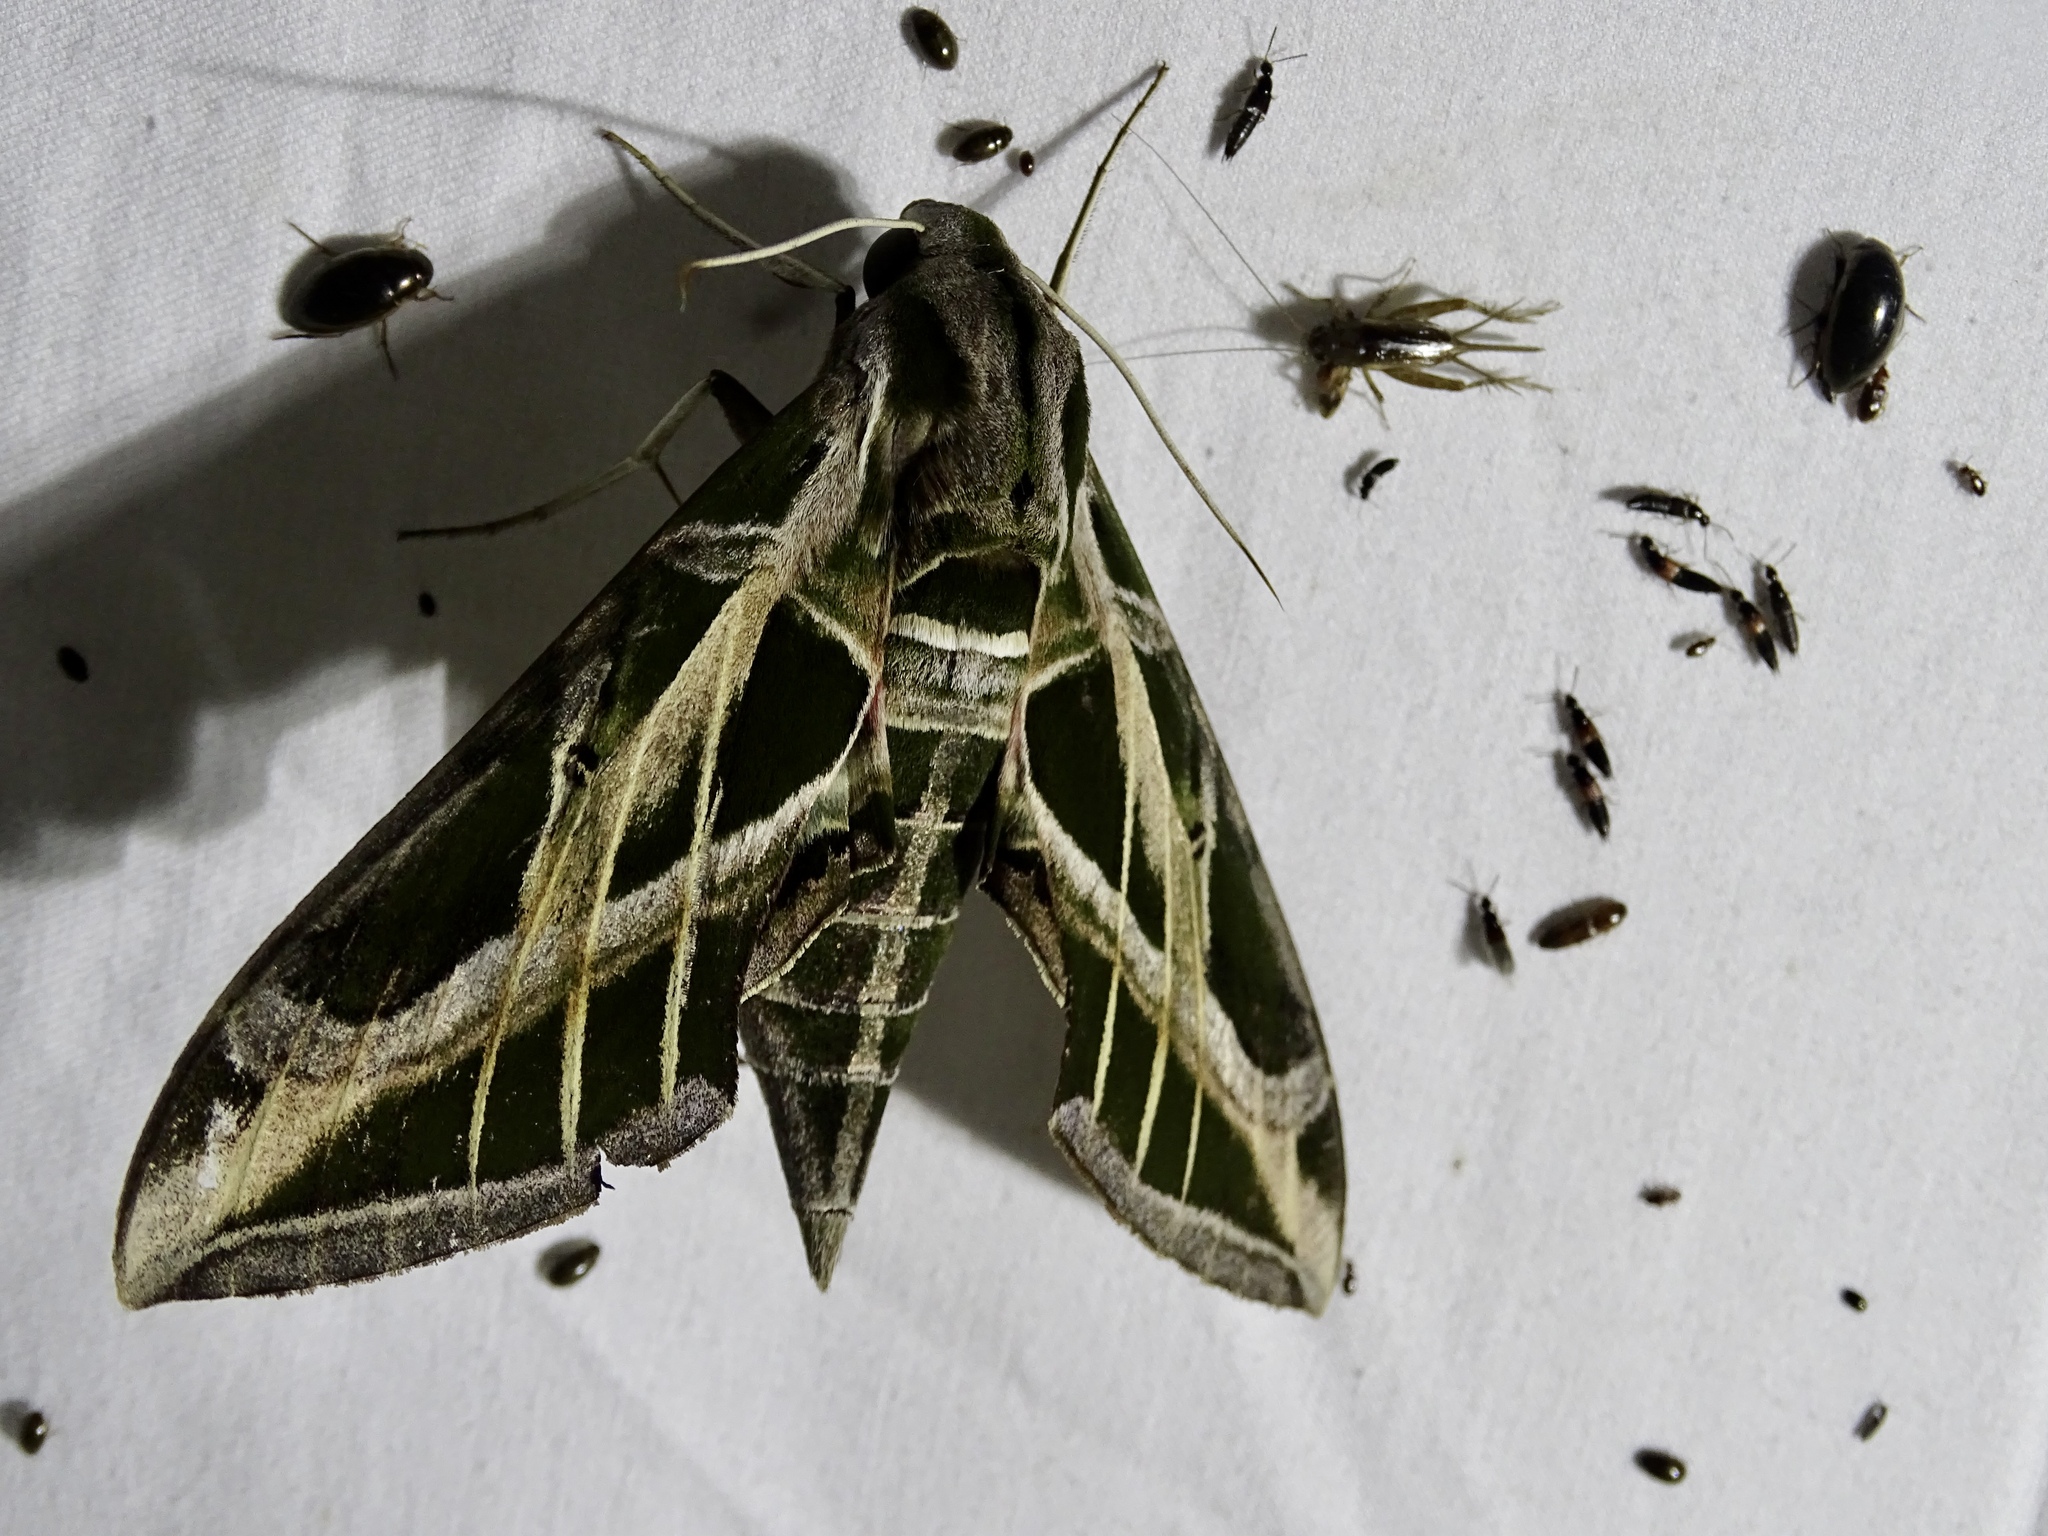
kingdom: Animalia
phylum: Arthropoda
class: Insecta
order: Lepidoptera
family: Sphingidae
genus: Eumorpha
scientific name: Eumorpha vitis
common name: Vine sphinx
